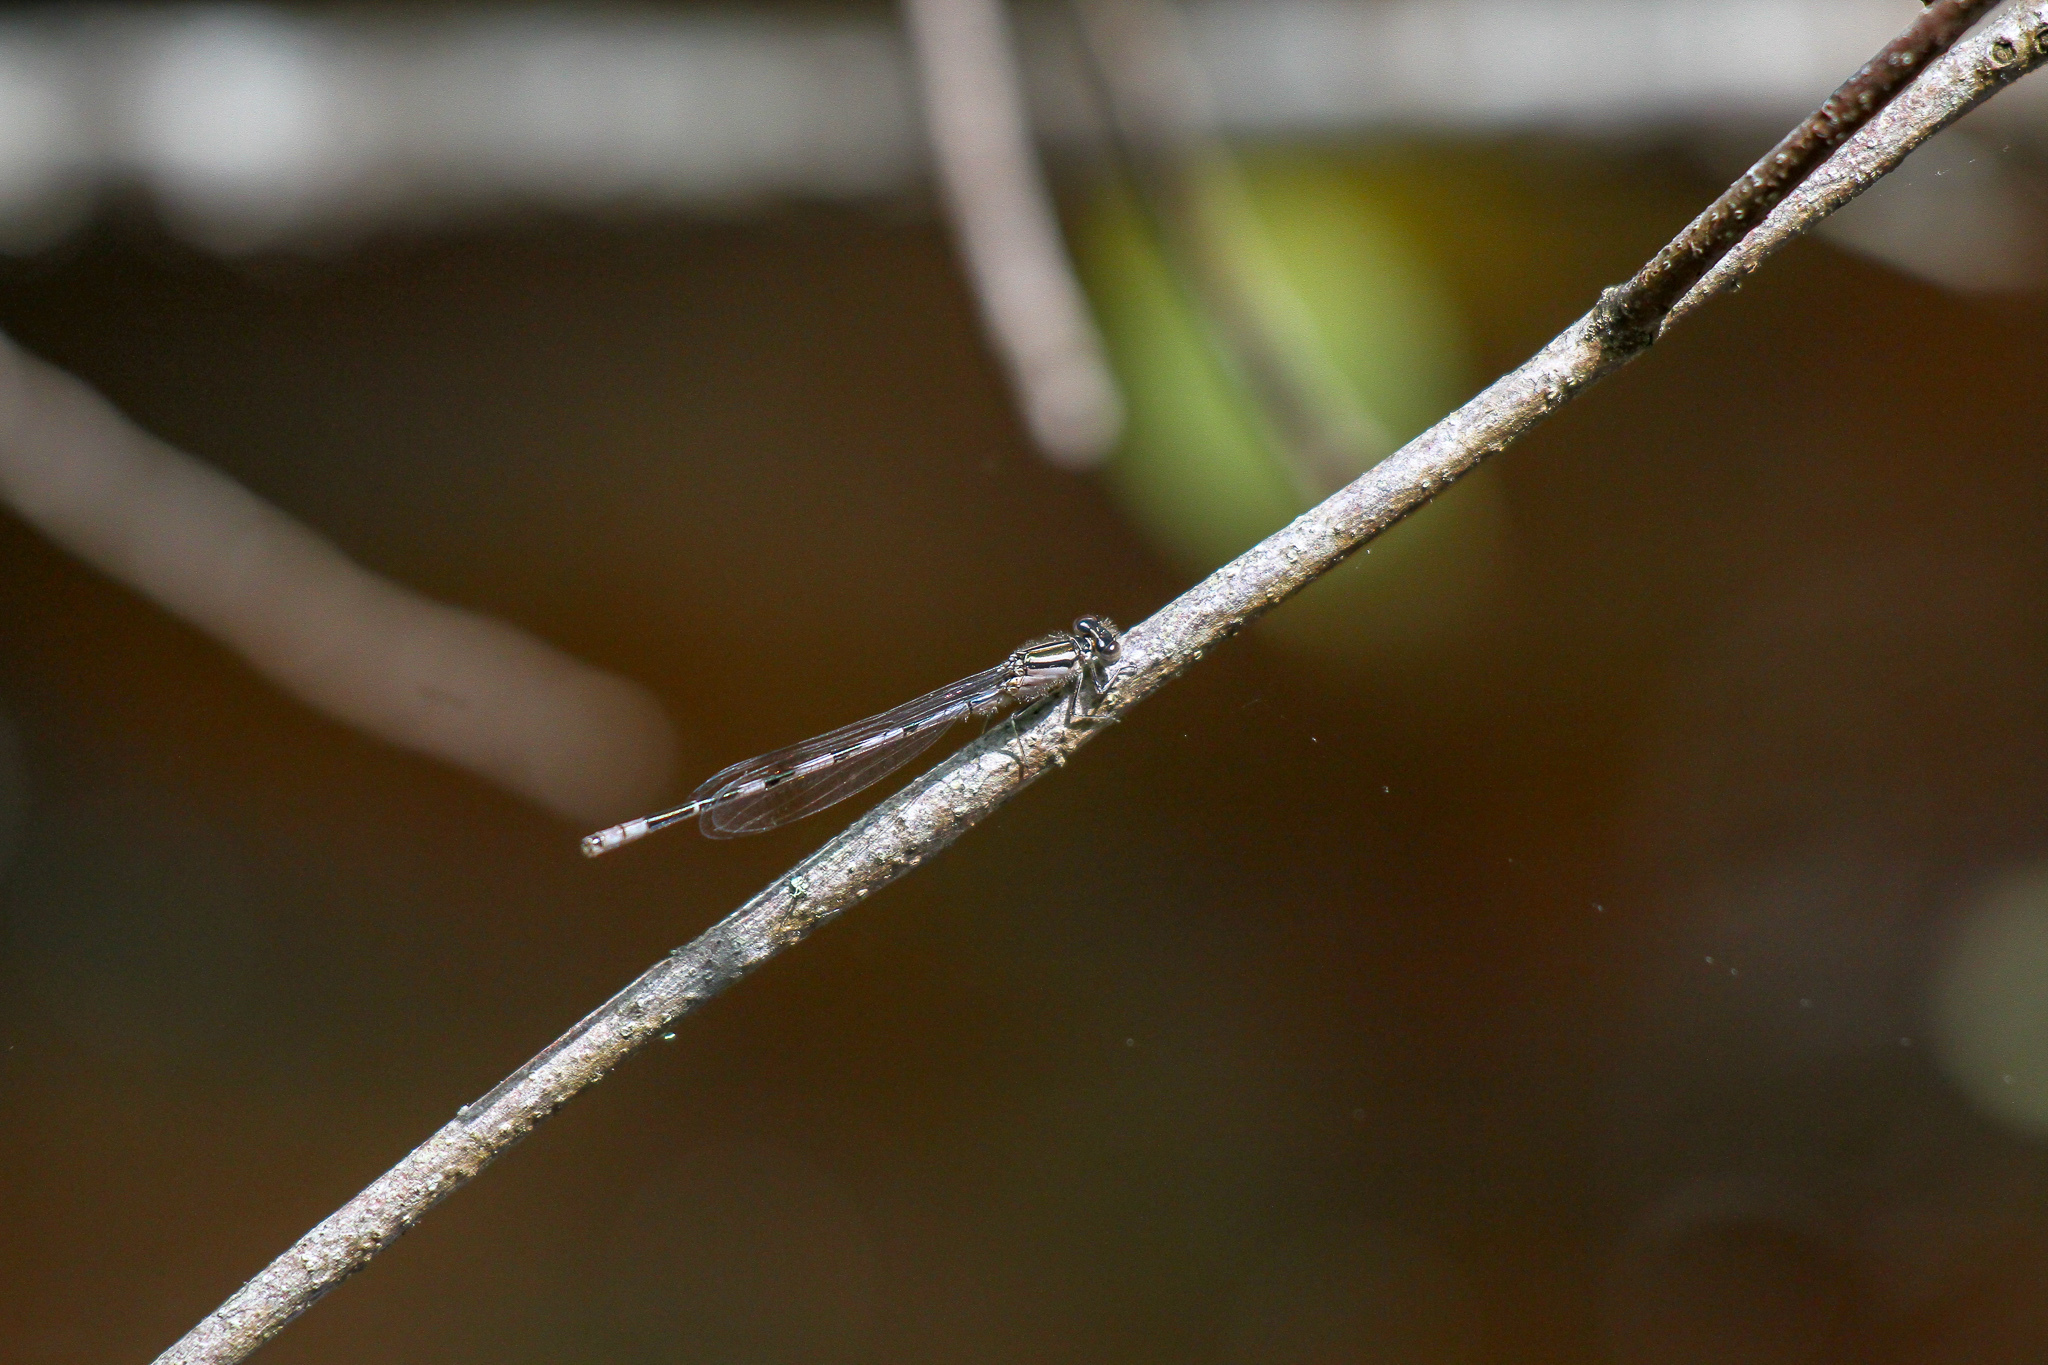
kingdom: Animalia
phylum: Arthropoda
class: Insecta
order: Odonata
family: Coenagrionidae
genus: Enallagma
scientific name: Enallagma durum
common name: Big bluet
